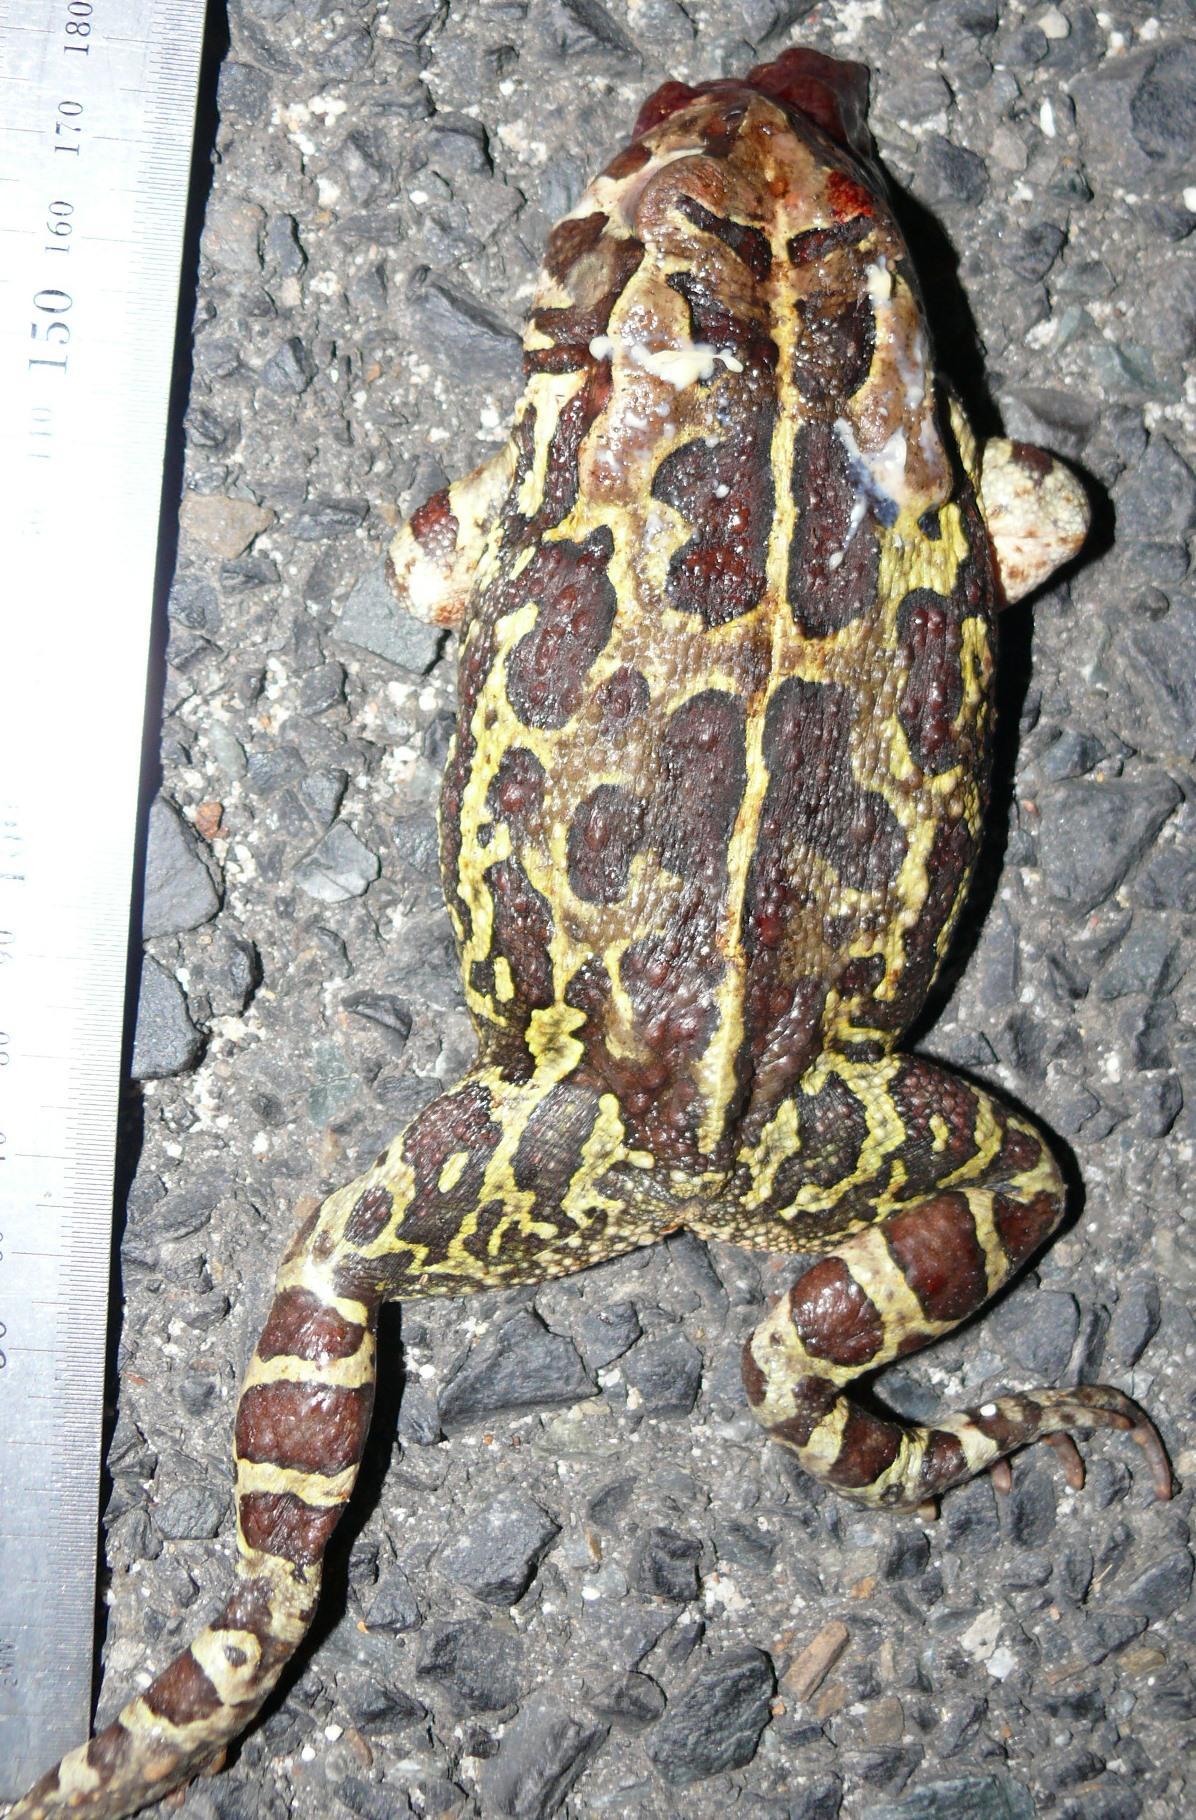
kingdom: Animalia
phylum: Chordata
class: Amphibia
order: Anura
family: Bufonidae
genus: Sclerophrys
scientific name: Sclerophrys pantherina
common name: Panther toad
